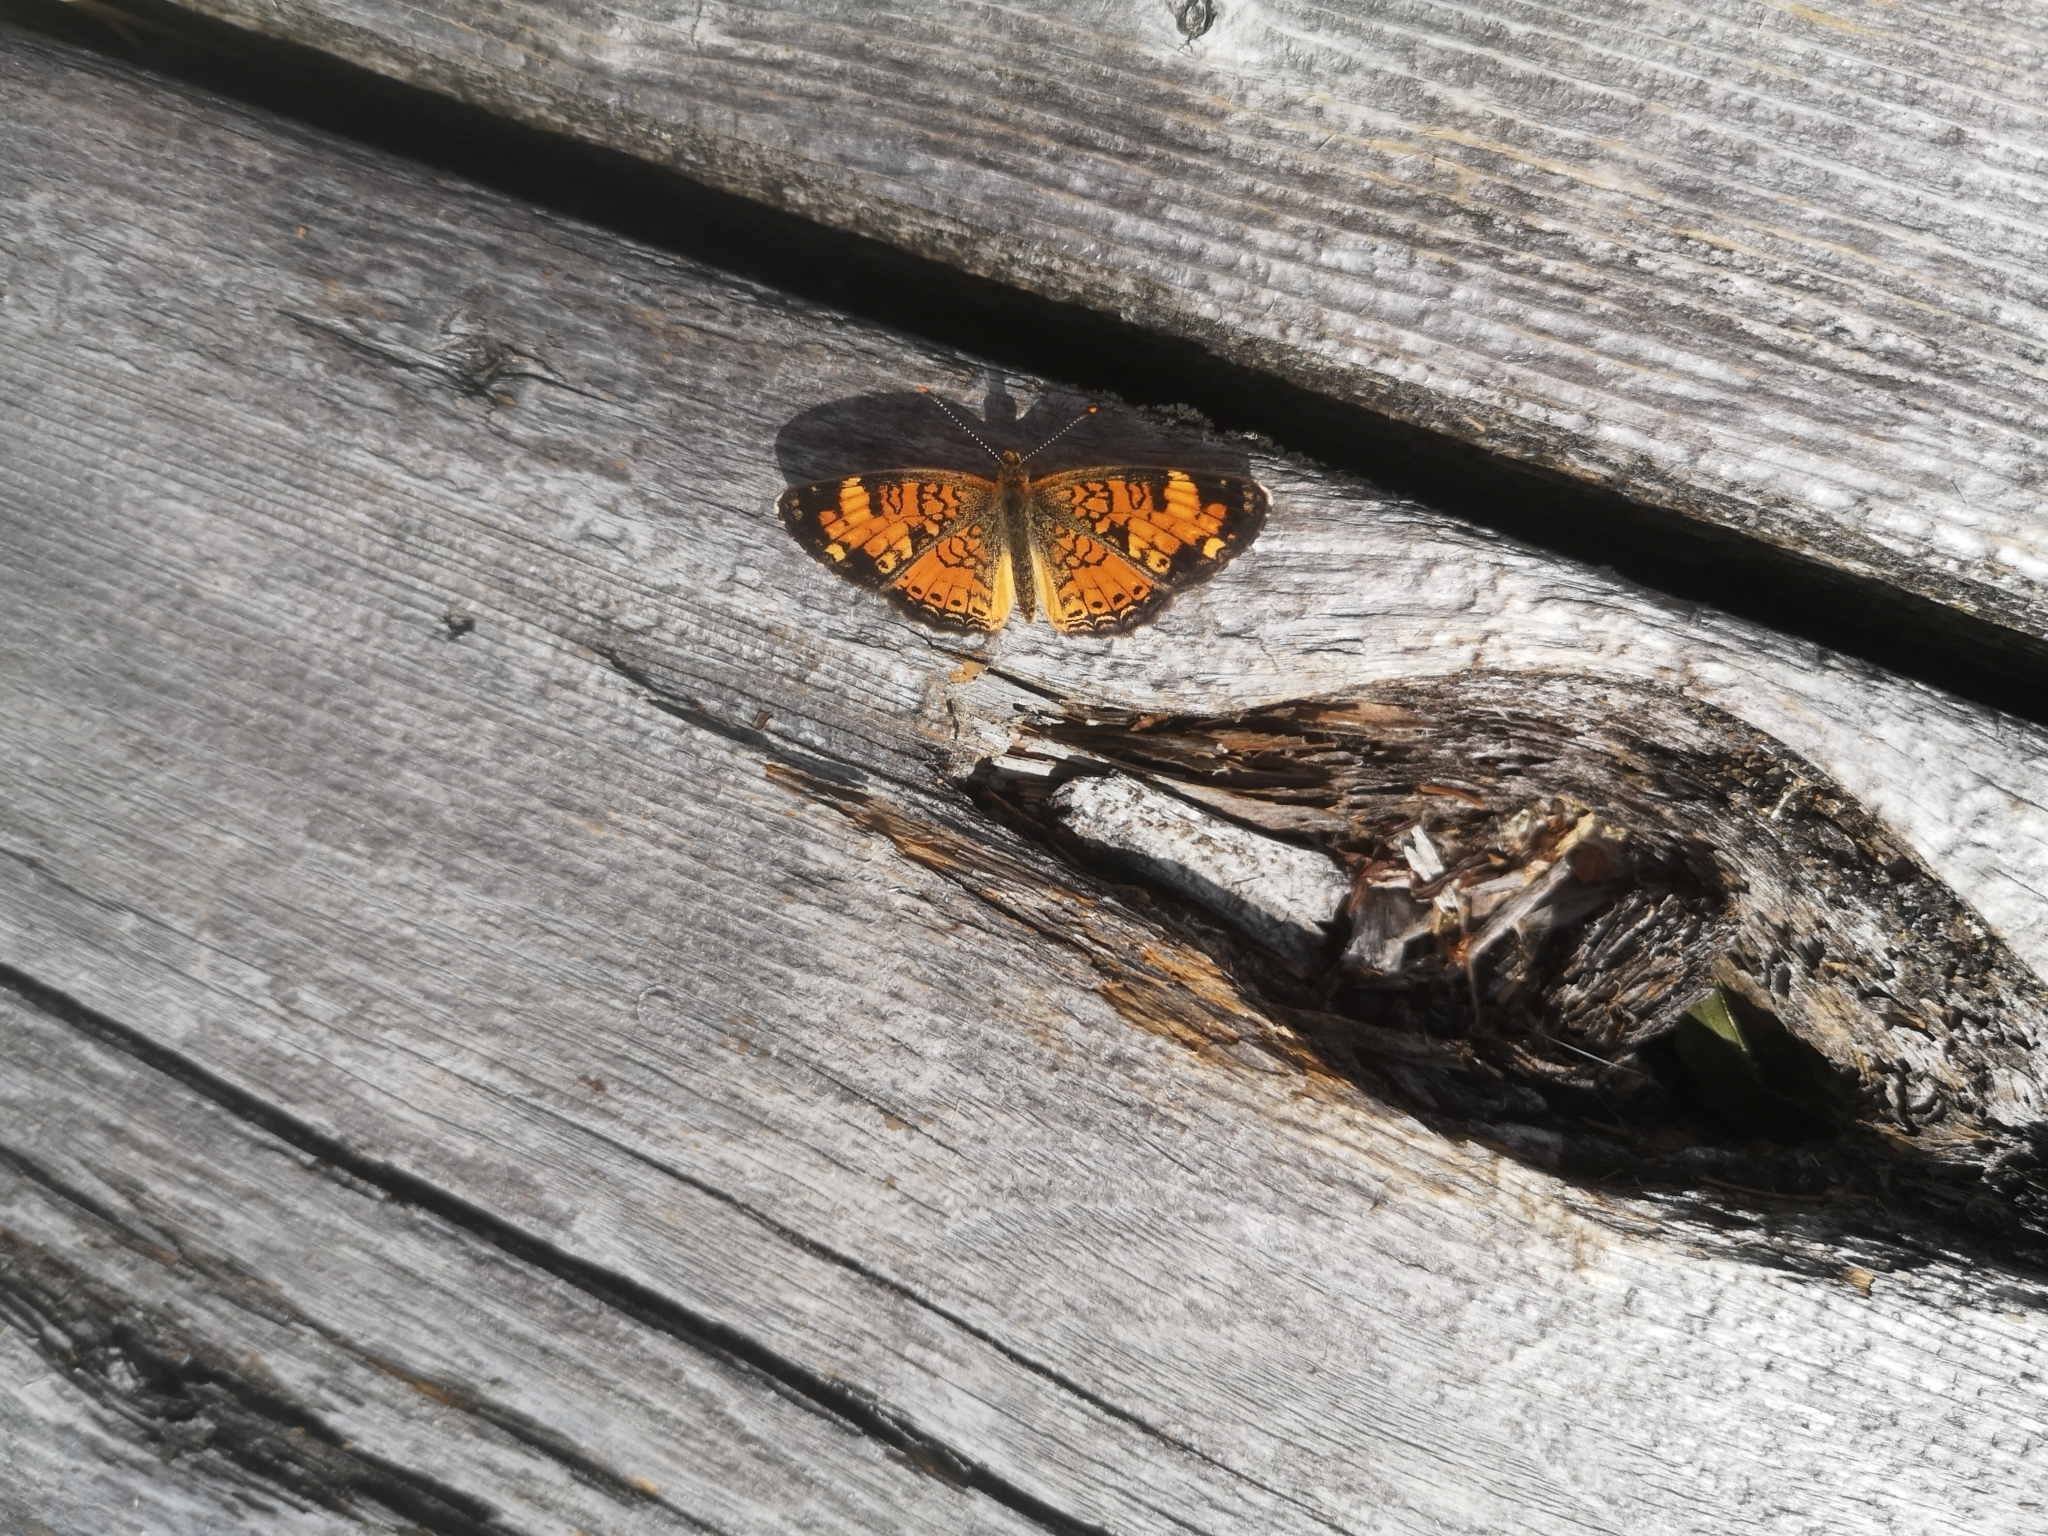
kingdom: Animalia
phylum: Arthropoda
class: Insecta
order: Lepidoptera
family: Nymphalidae
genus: Phyciodes
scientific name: Phyciodes tharos
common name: Pearl crescent
